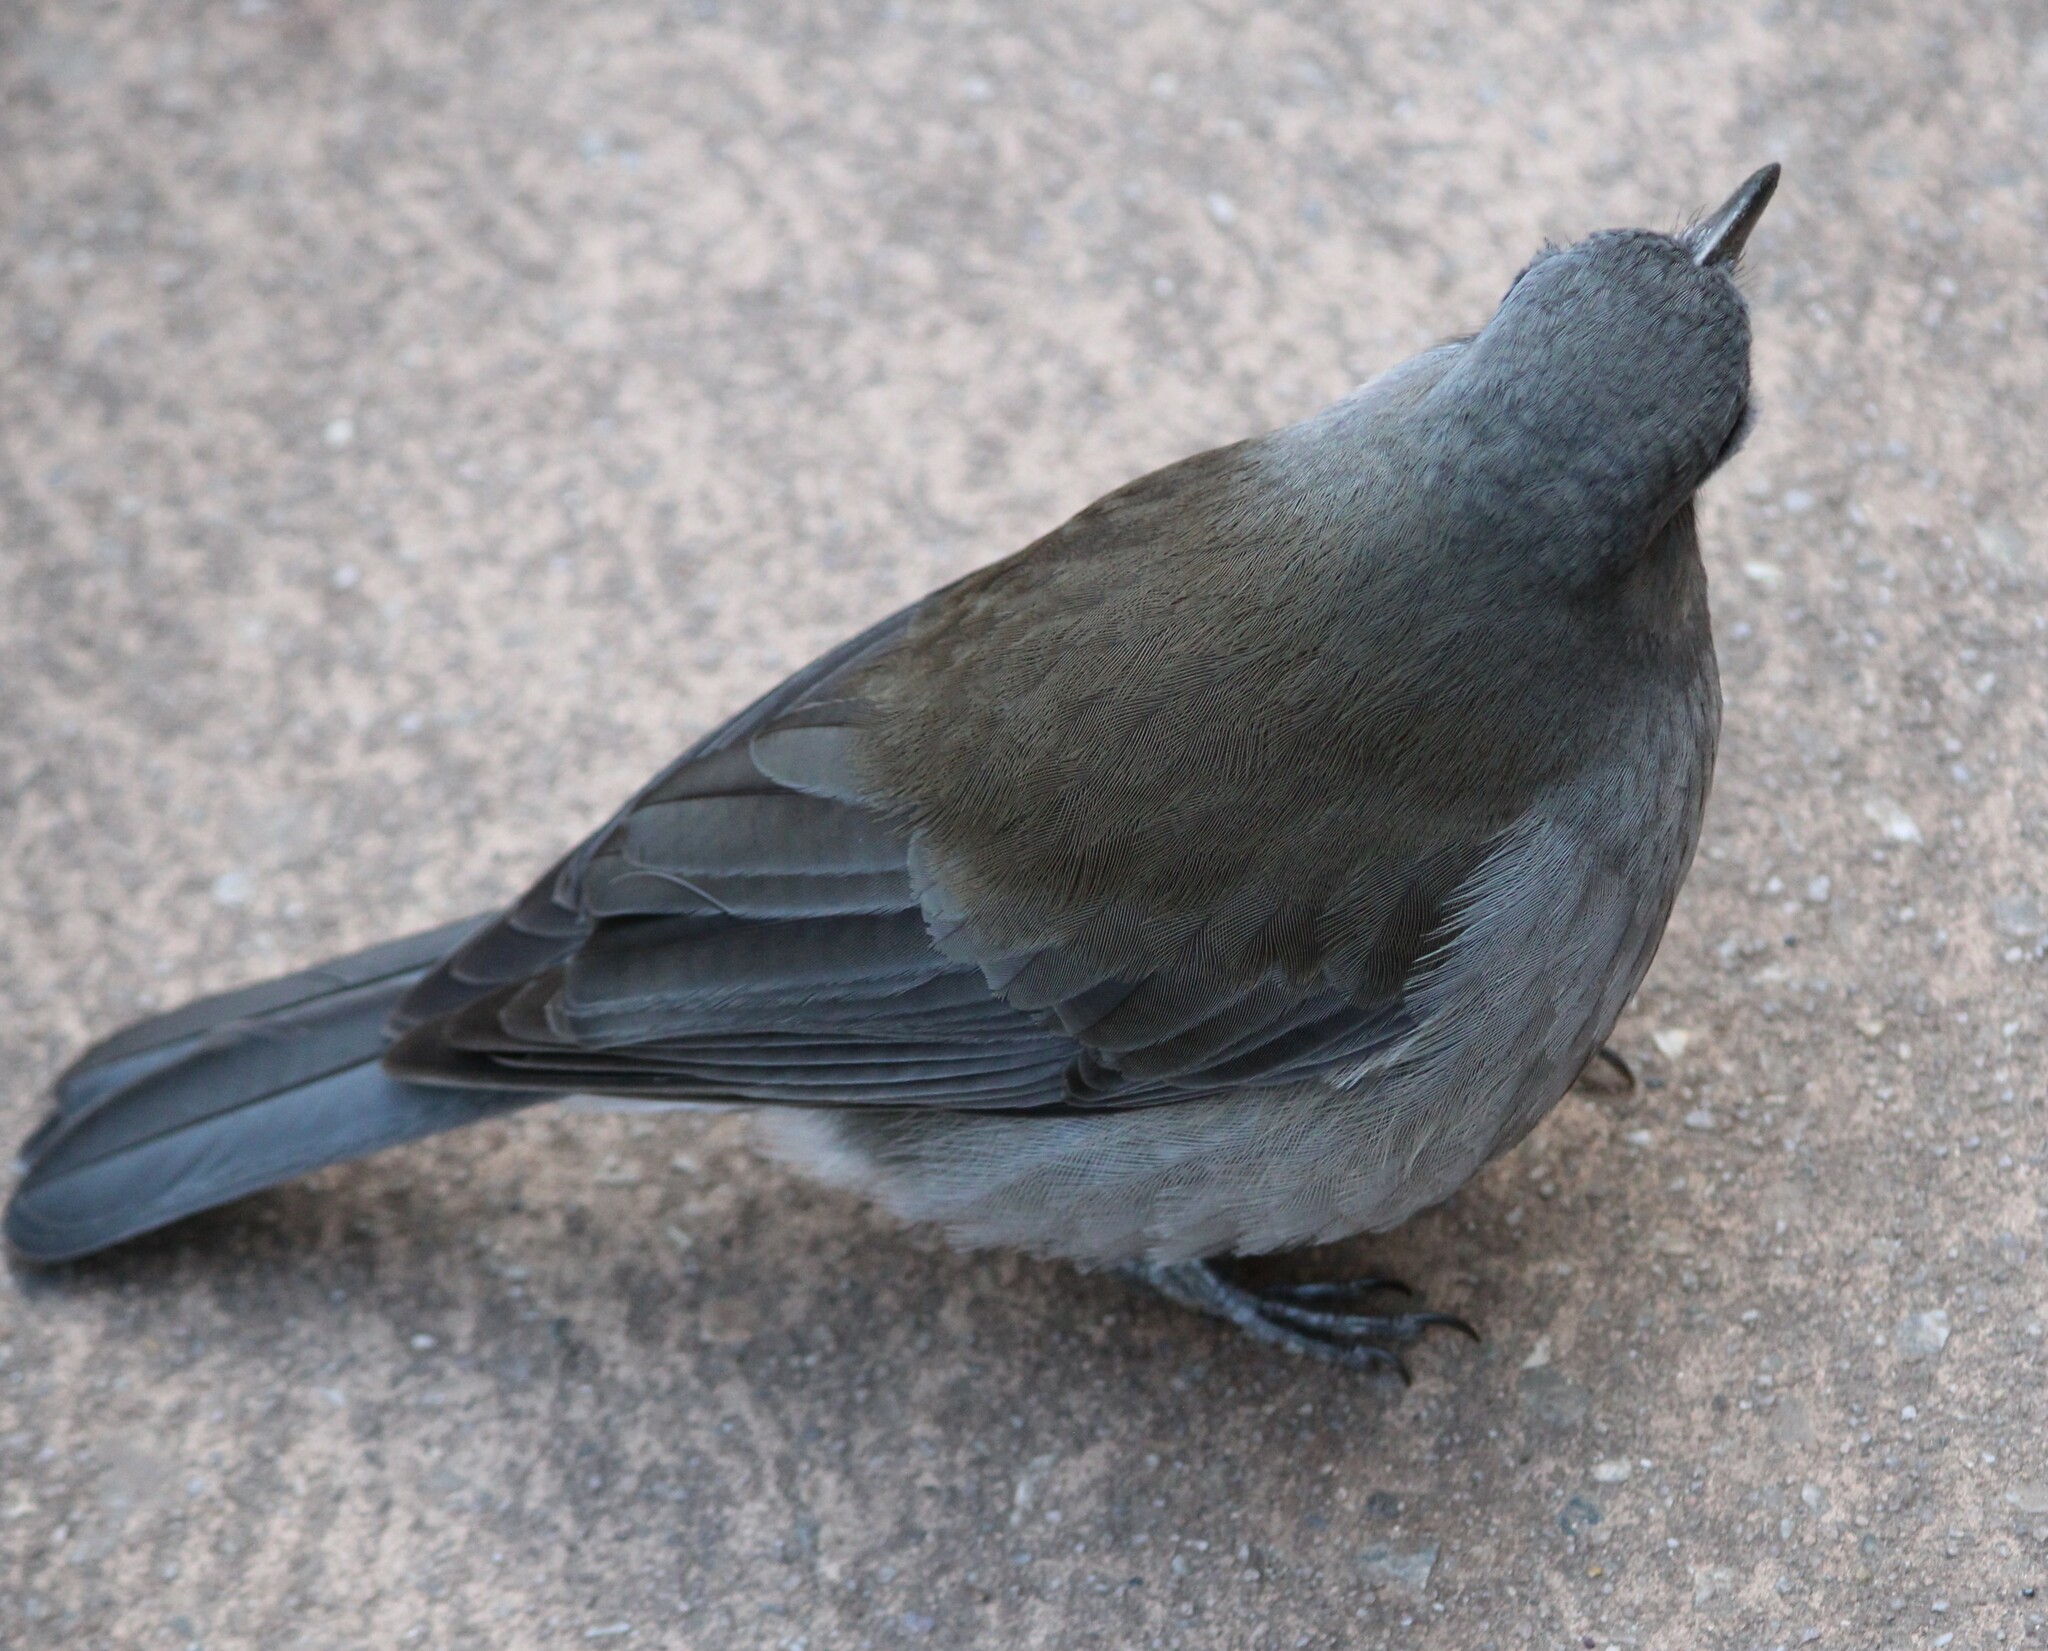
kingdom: Animalia
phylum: Chordata
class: Aves
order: Passeriformes
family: Pachycephalidae
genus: Colluricincla
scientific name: Colluricincla harmonica
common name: Grey shrikethrush
